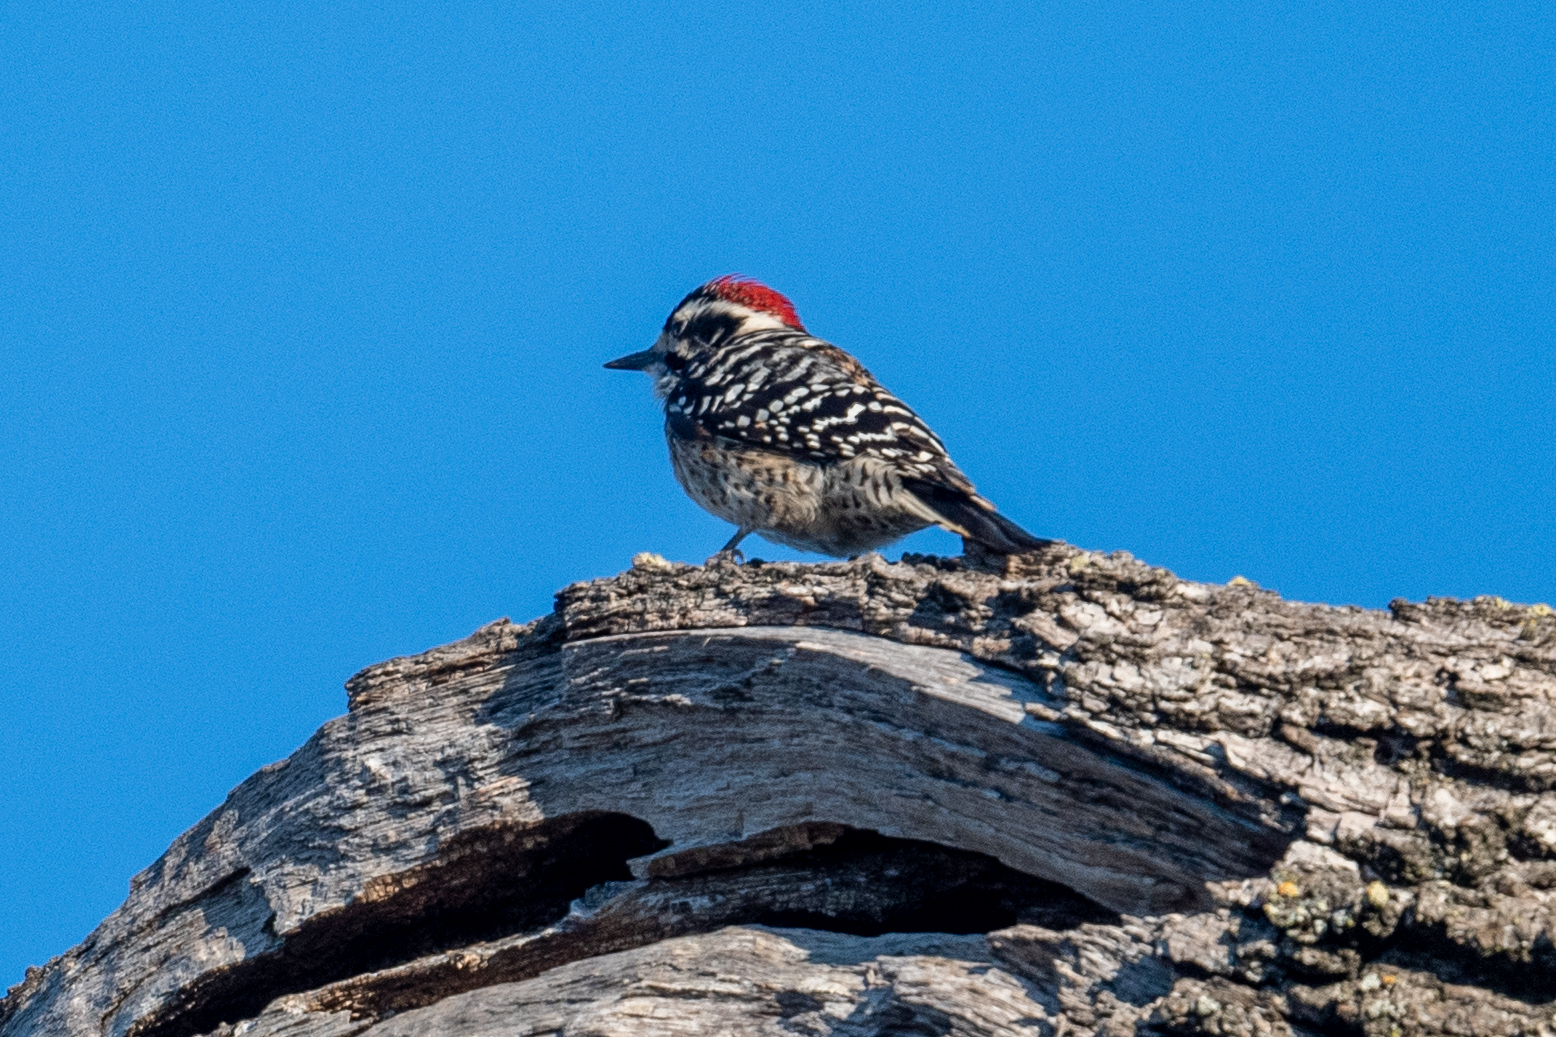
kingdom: Animalia
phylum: Chordata
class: Aves
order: Piciformes
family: Picidae
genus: Dryobates
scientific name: Dryobates nuttallii
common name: Nuttall's woodpecker
